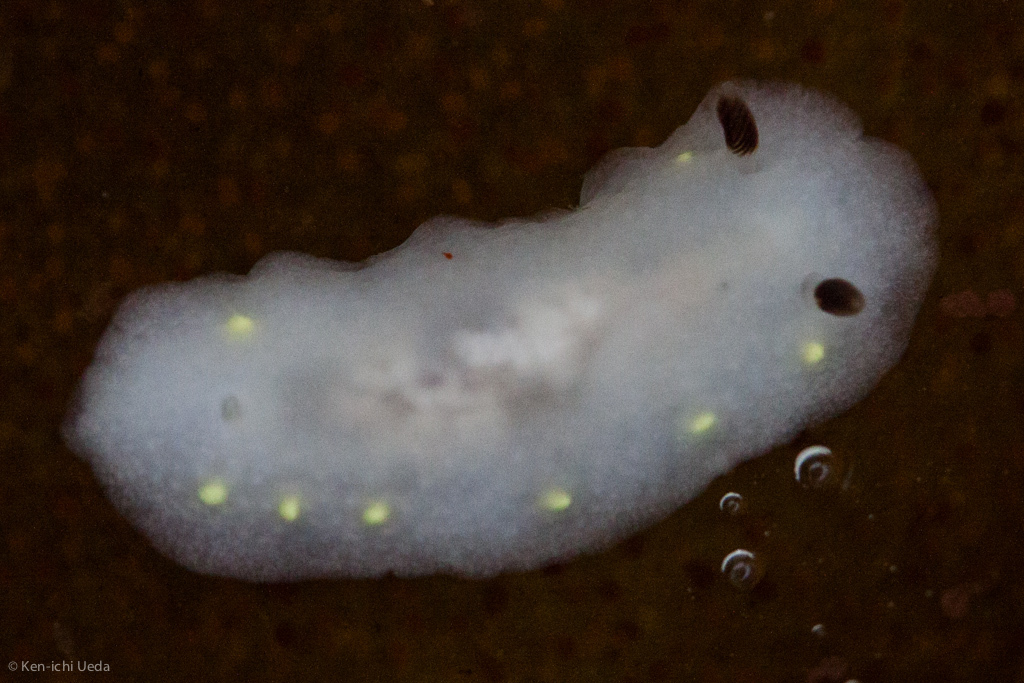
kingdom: Animalia
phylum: Mollusca
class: Gastropoda
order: Nudibranchia
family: Cadlinidae
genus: Cadlina
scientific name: Cadlina flavomaculata
